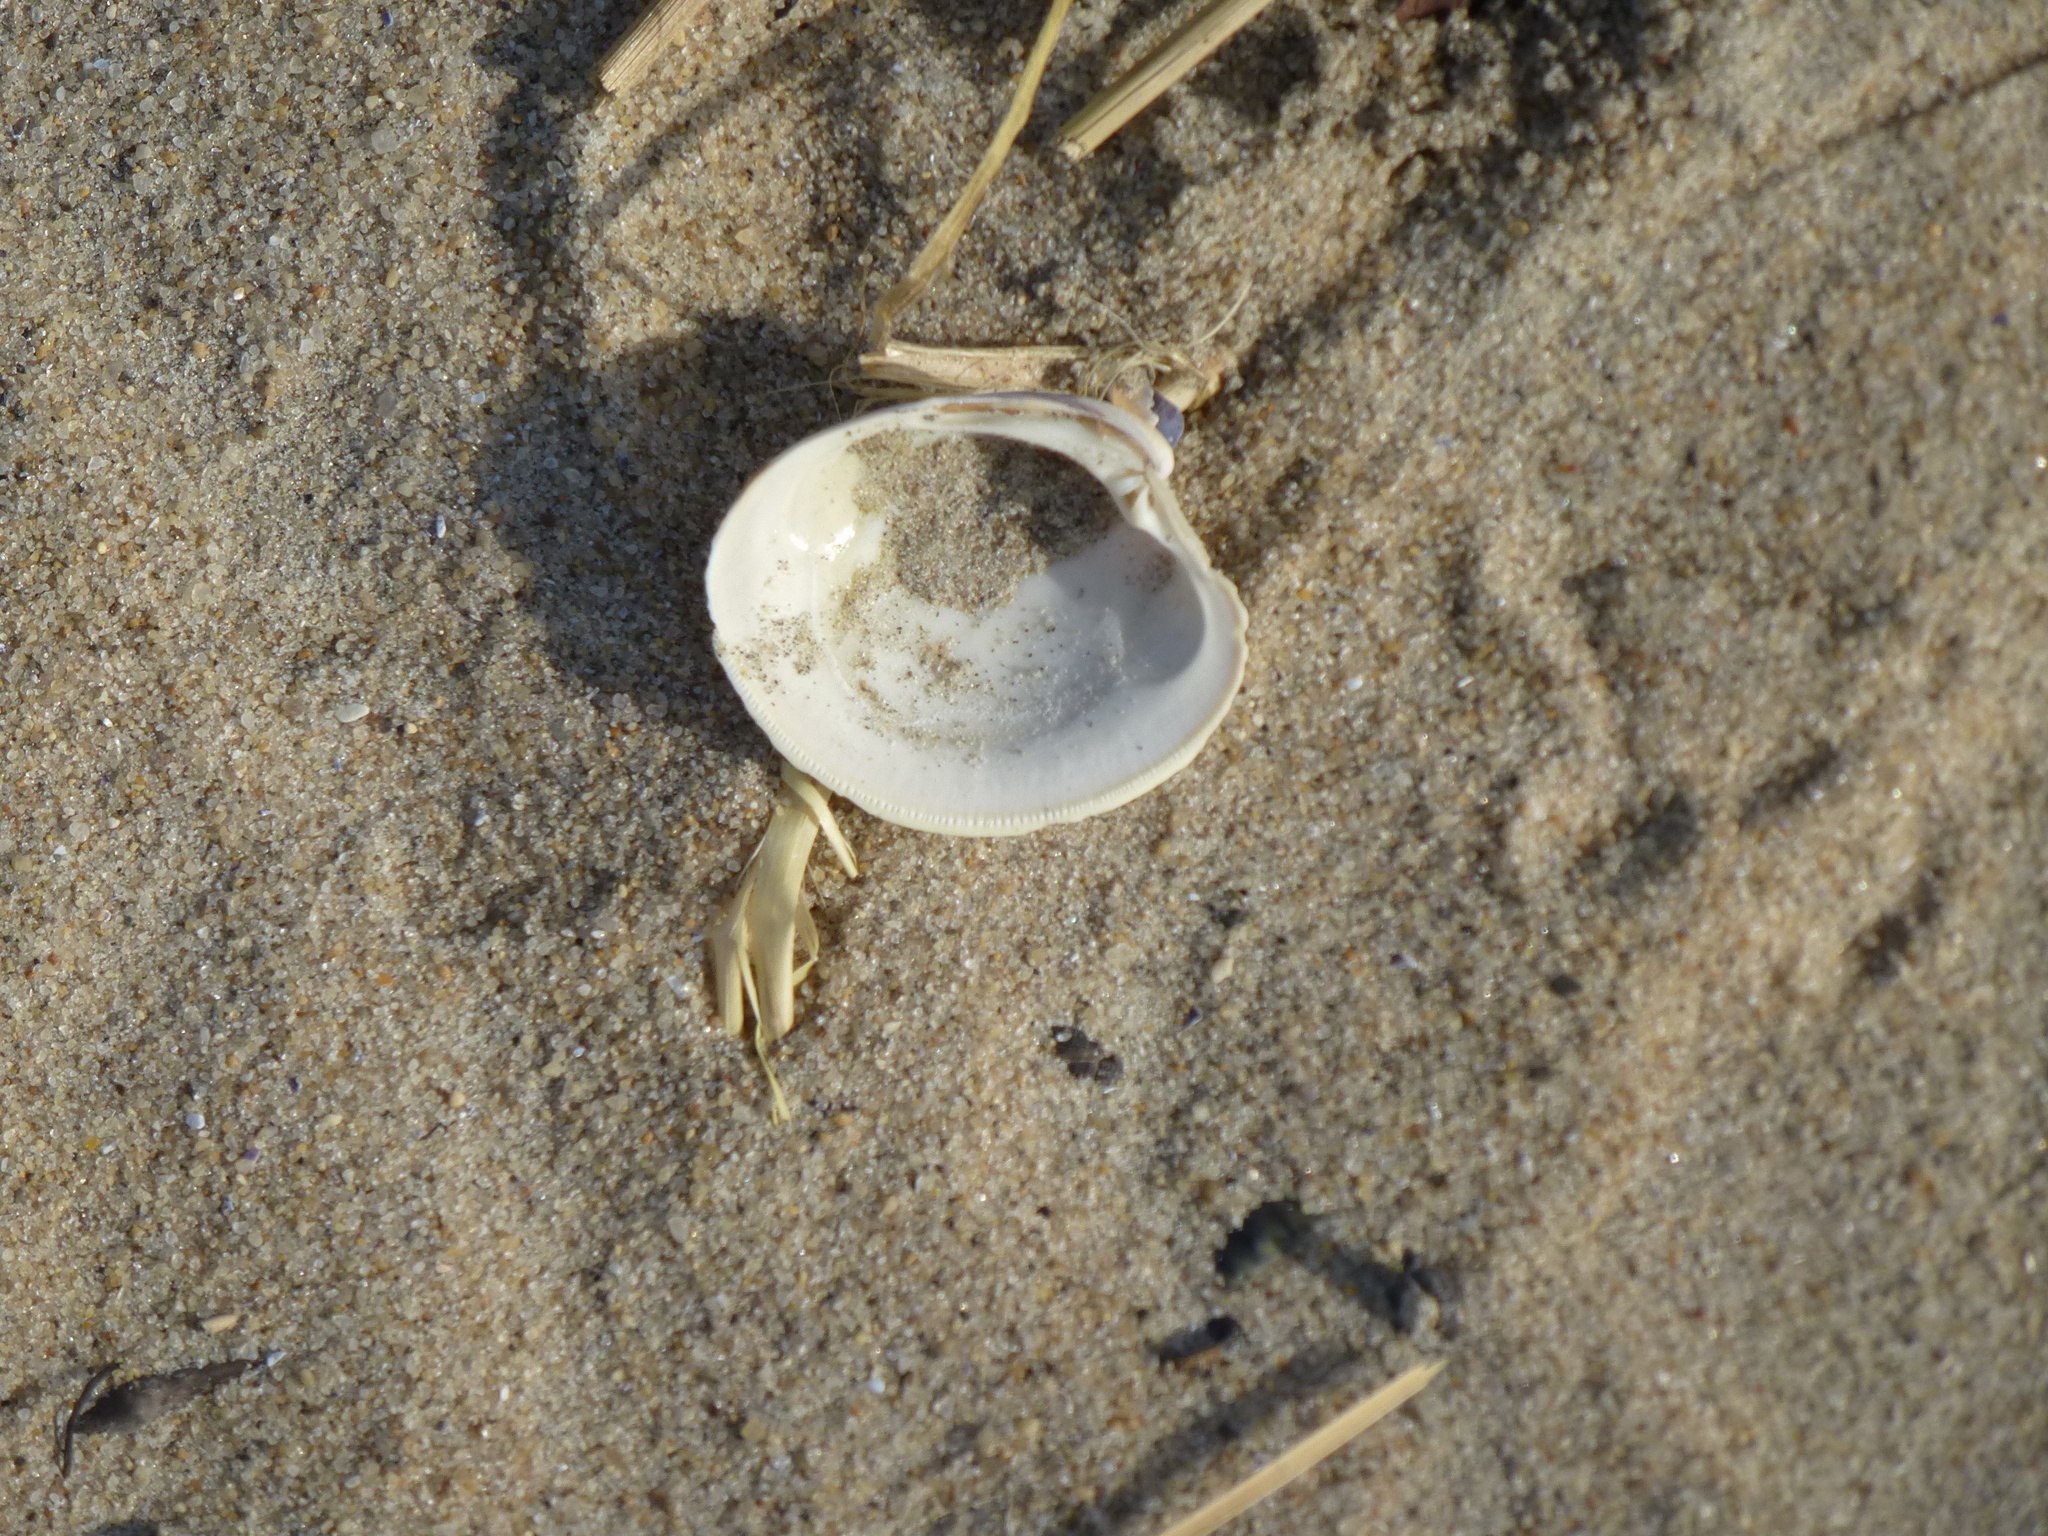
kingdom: Animalia
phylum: Mollusca
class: Bivalvia
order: Venerida
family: Veneridae
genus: Mercenaria
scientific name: Mercenaria mercenaria
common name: American hard-shelled clam
